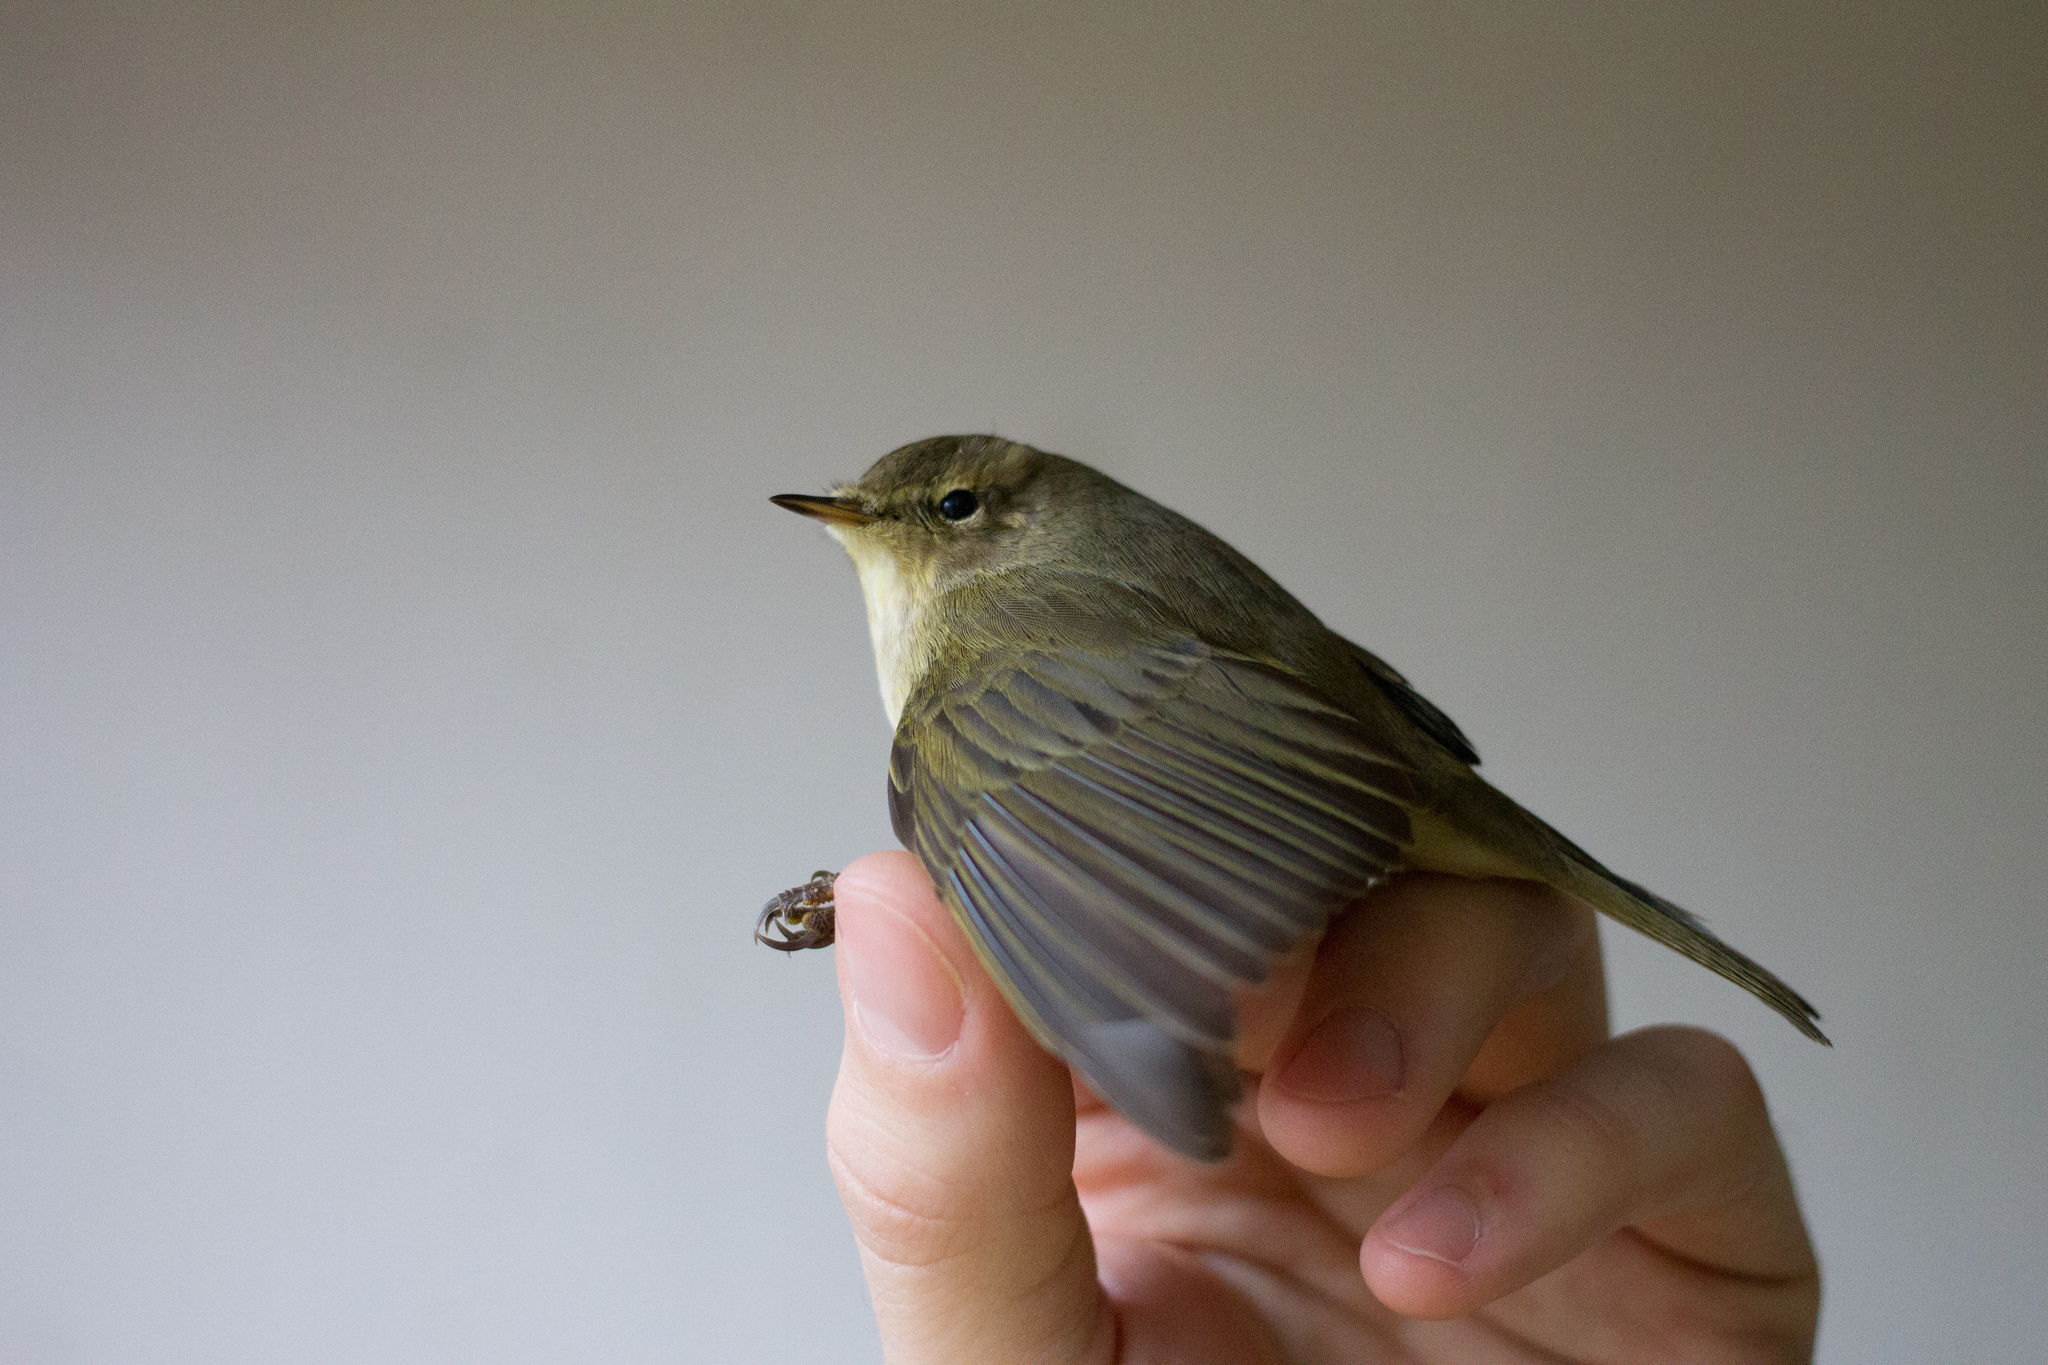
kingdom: Animalia
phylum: Chordata
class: Aves
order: Passeriformes
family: Phylloscopidae
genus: Phylloscopus
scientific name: Phylloscopus collybita
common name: Common chiffchaff
